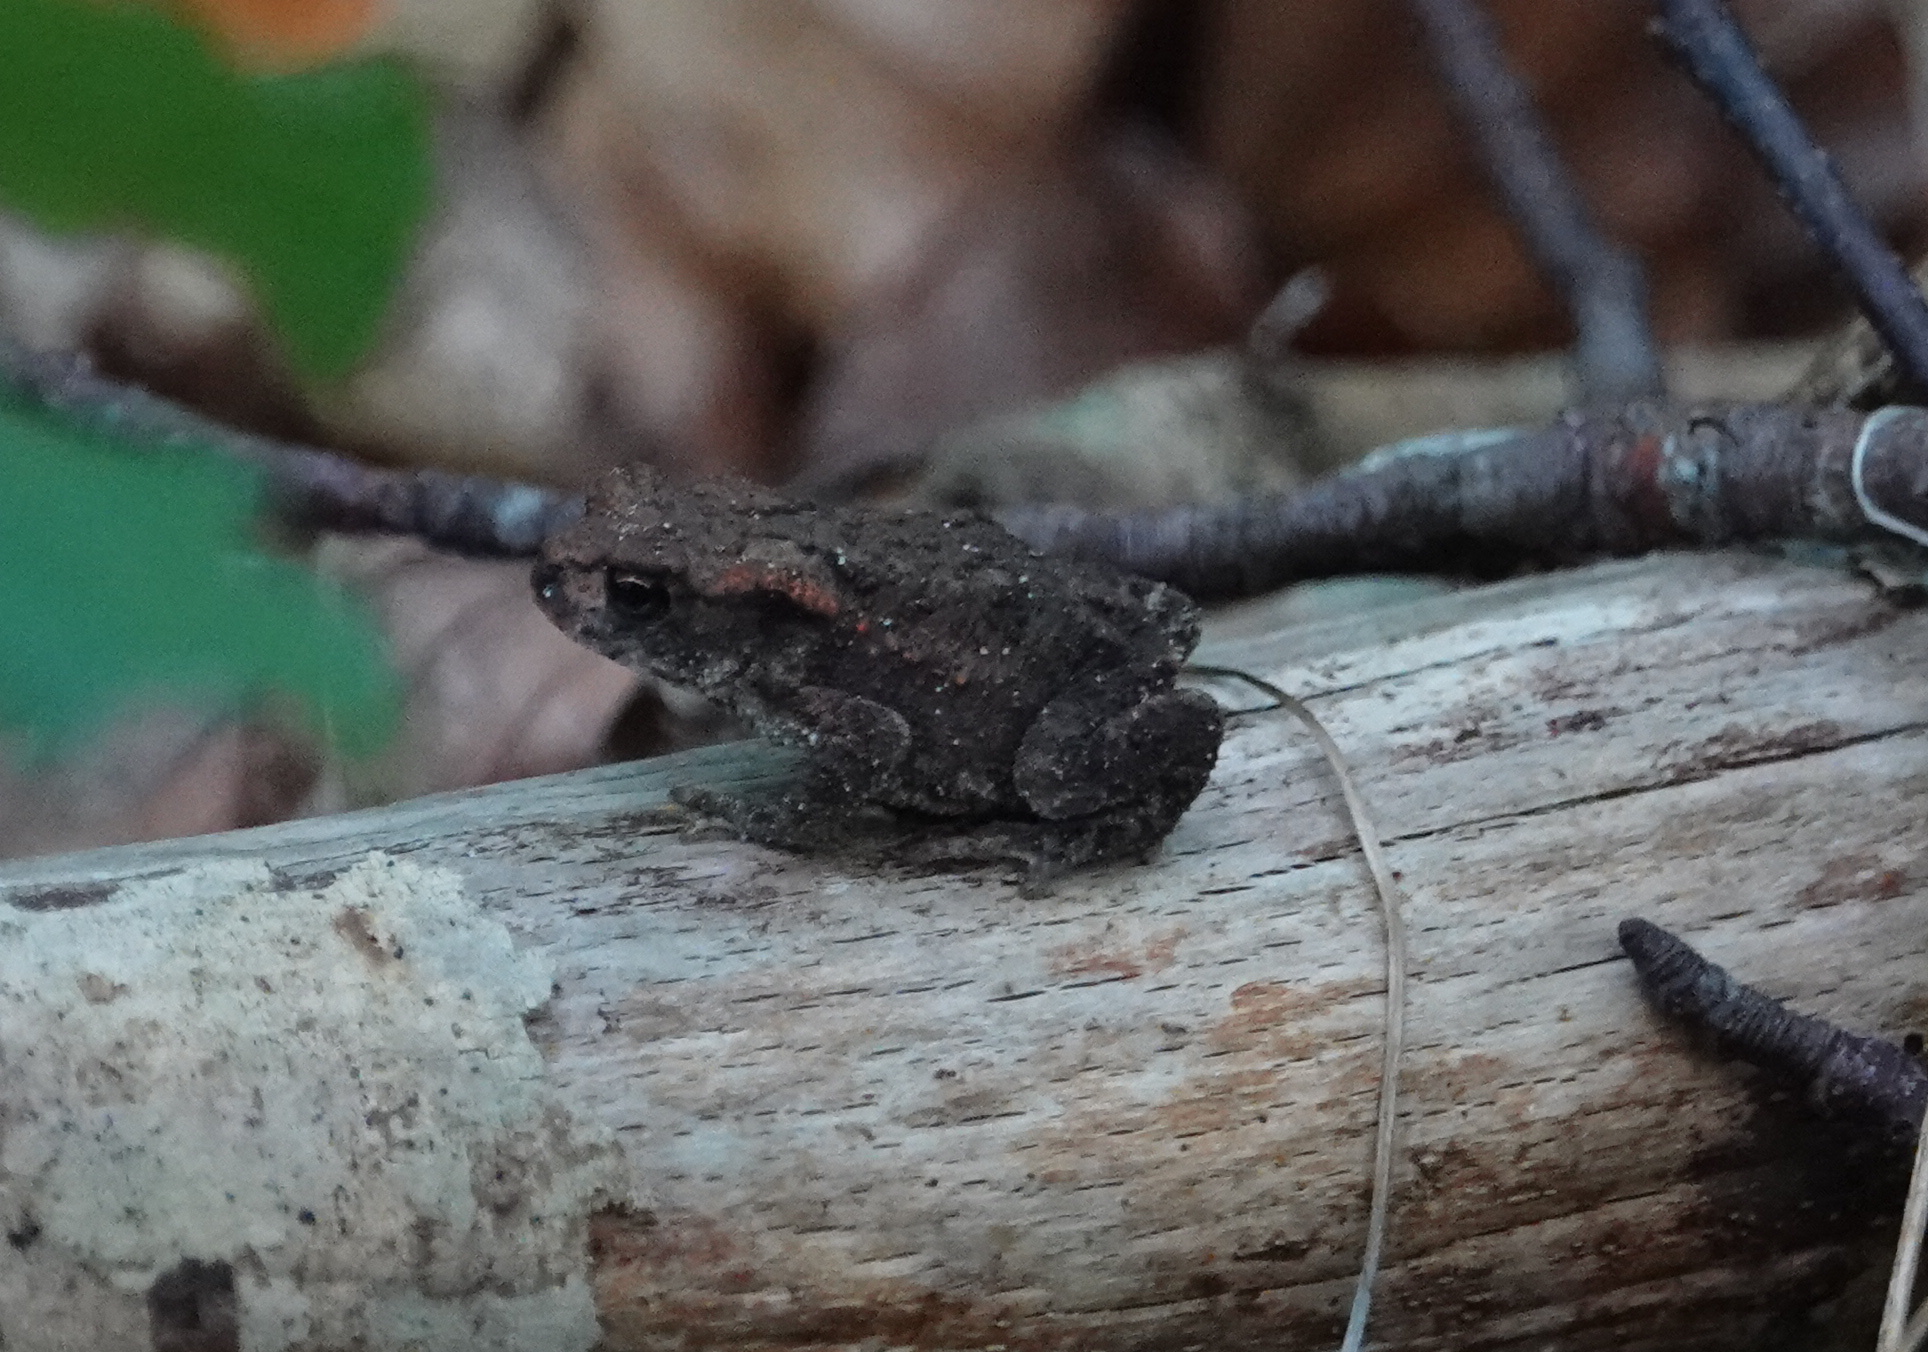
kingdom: Animalia
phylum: Chordata
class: Amphibia
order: Anura
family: Bufonidae
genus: Bufo
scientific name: Bufo bufo
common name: Common toad
